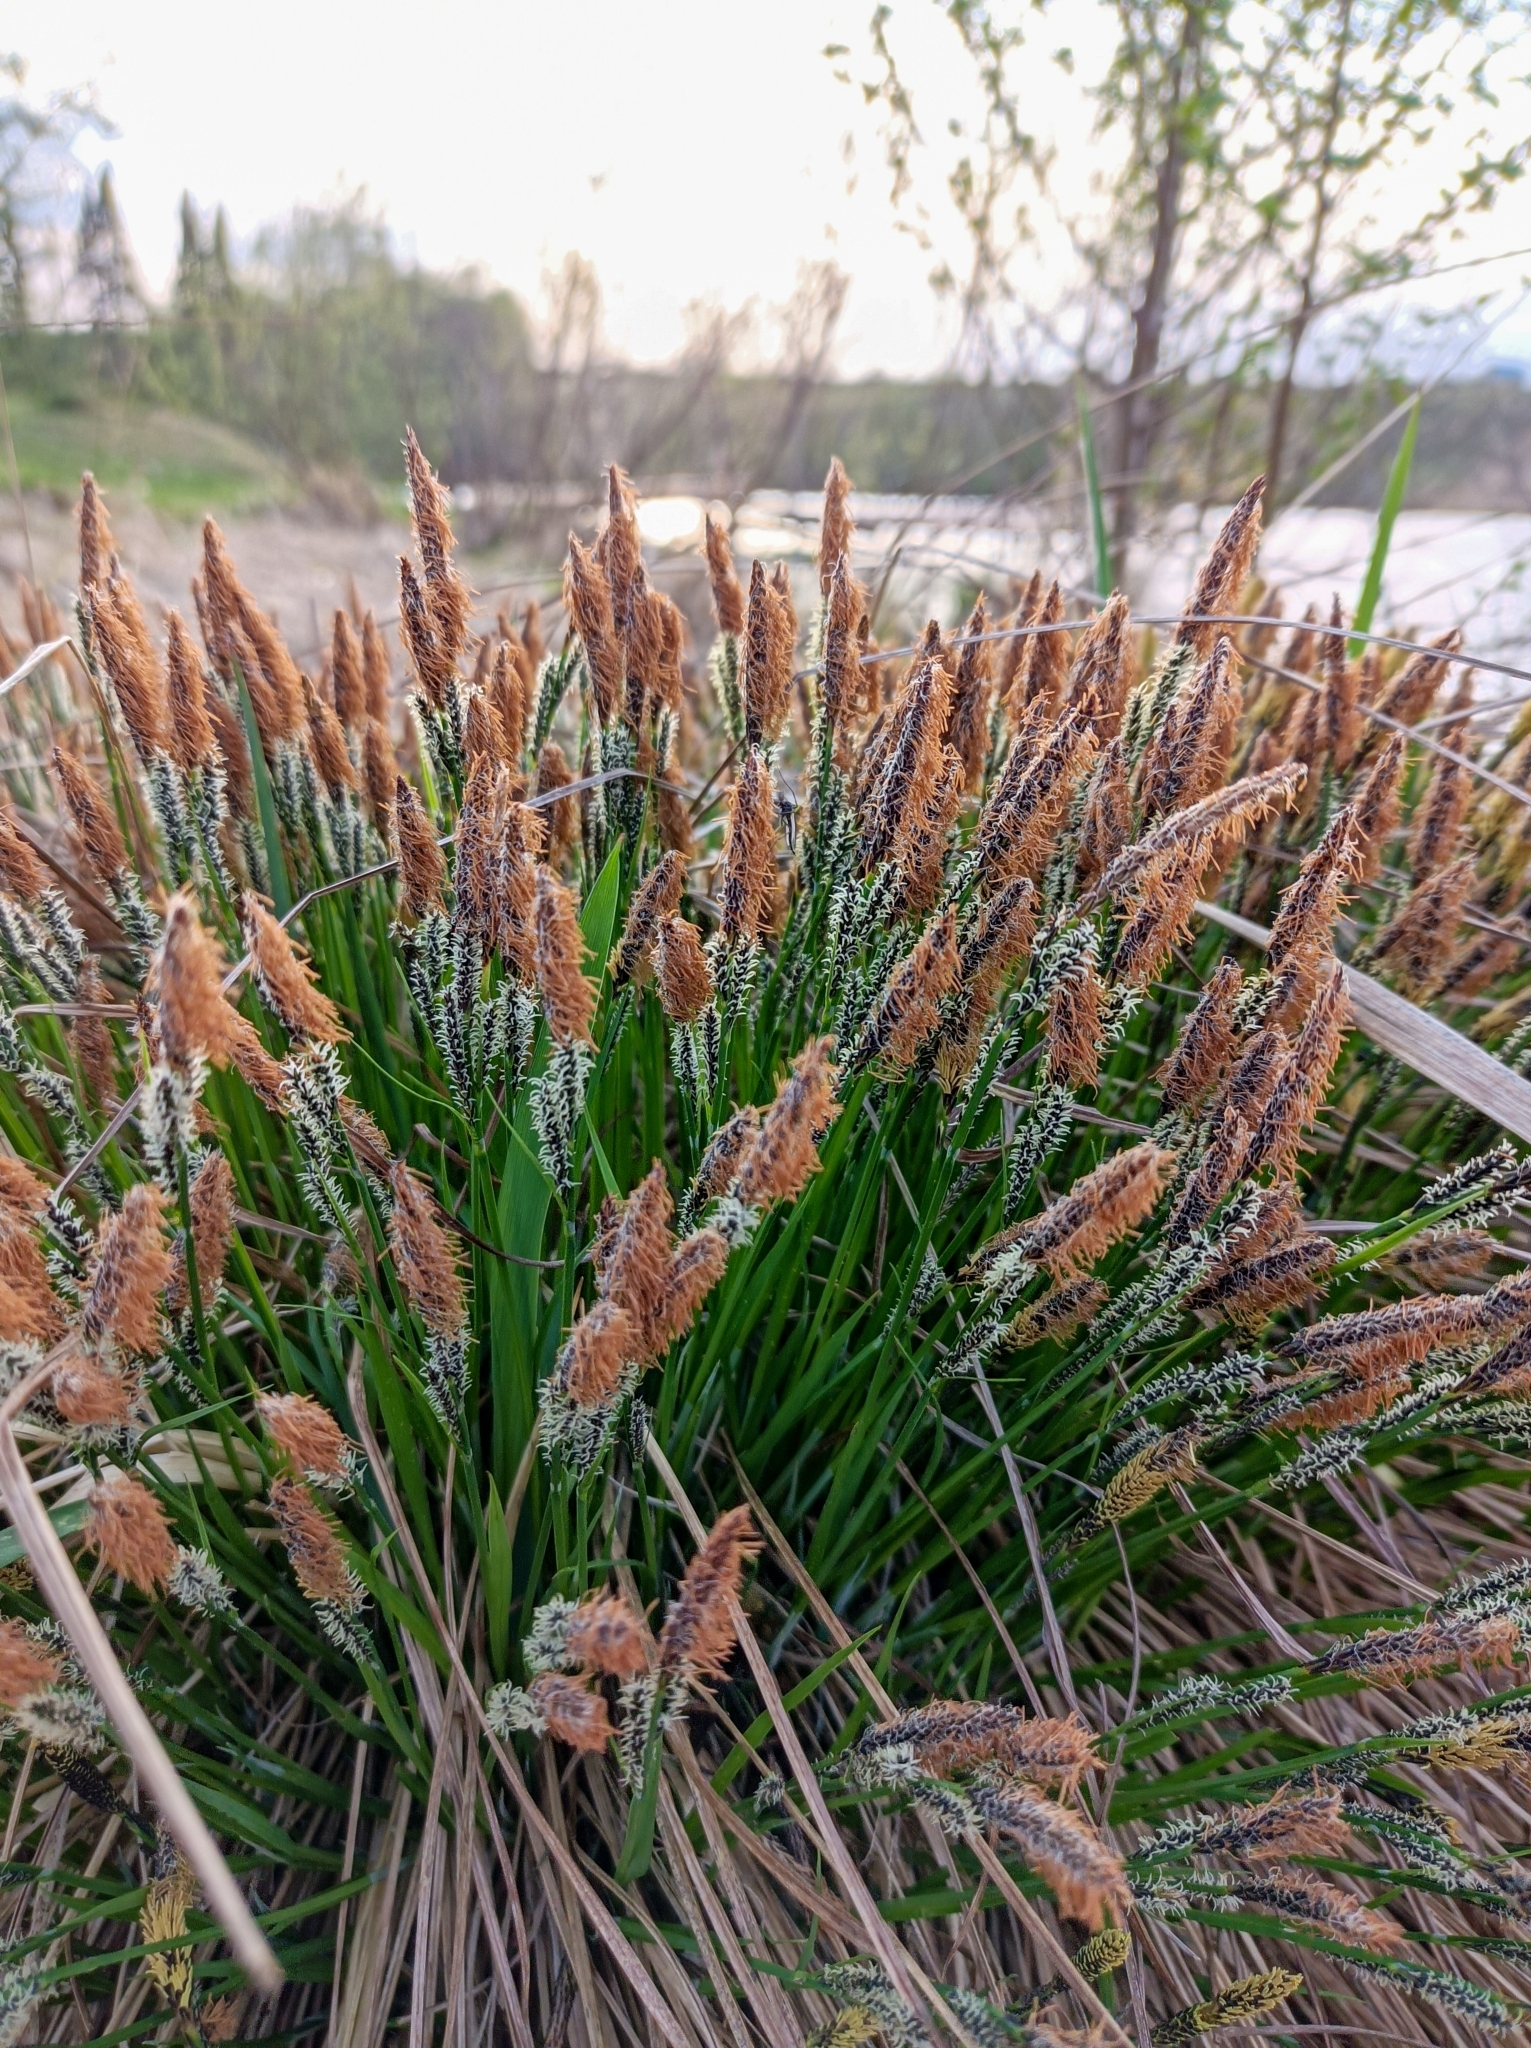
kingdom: Plantae
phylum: Tracheophyta
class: Liliopsida
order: Poales
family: Cyperaceae
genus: Carex
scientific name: Carex cespitosa
